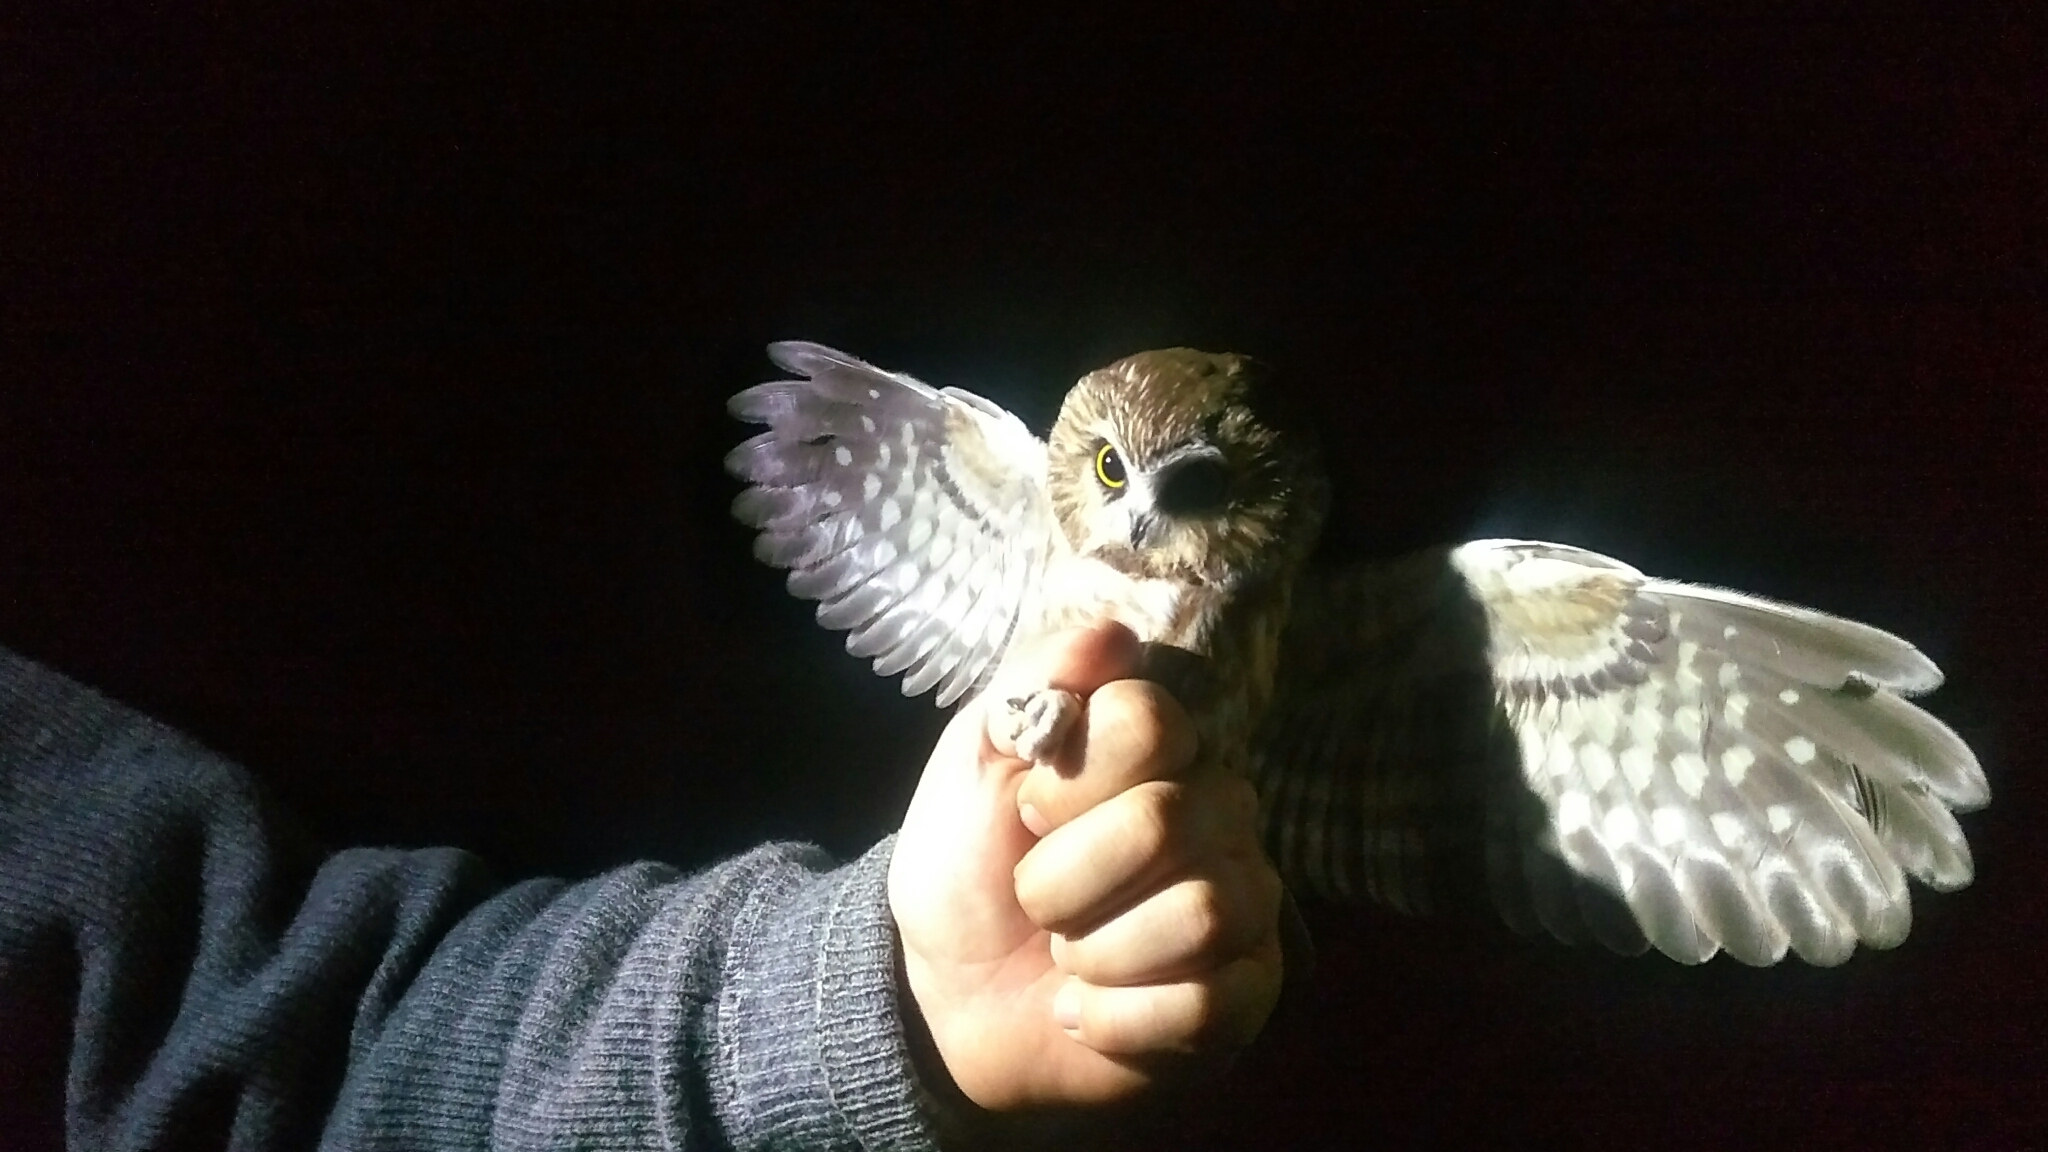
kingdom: Animalia
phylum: Chordata
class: Aves
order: Strigiformes
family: Strigidae
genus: Aegolius
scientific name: Aegolius acadicus
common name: Northern saw-whet owl
